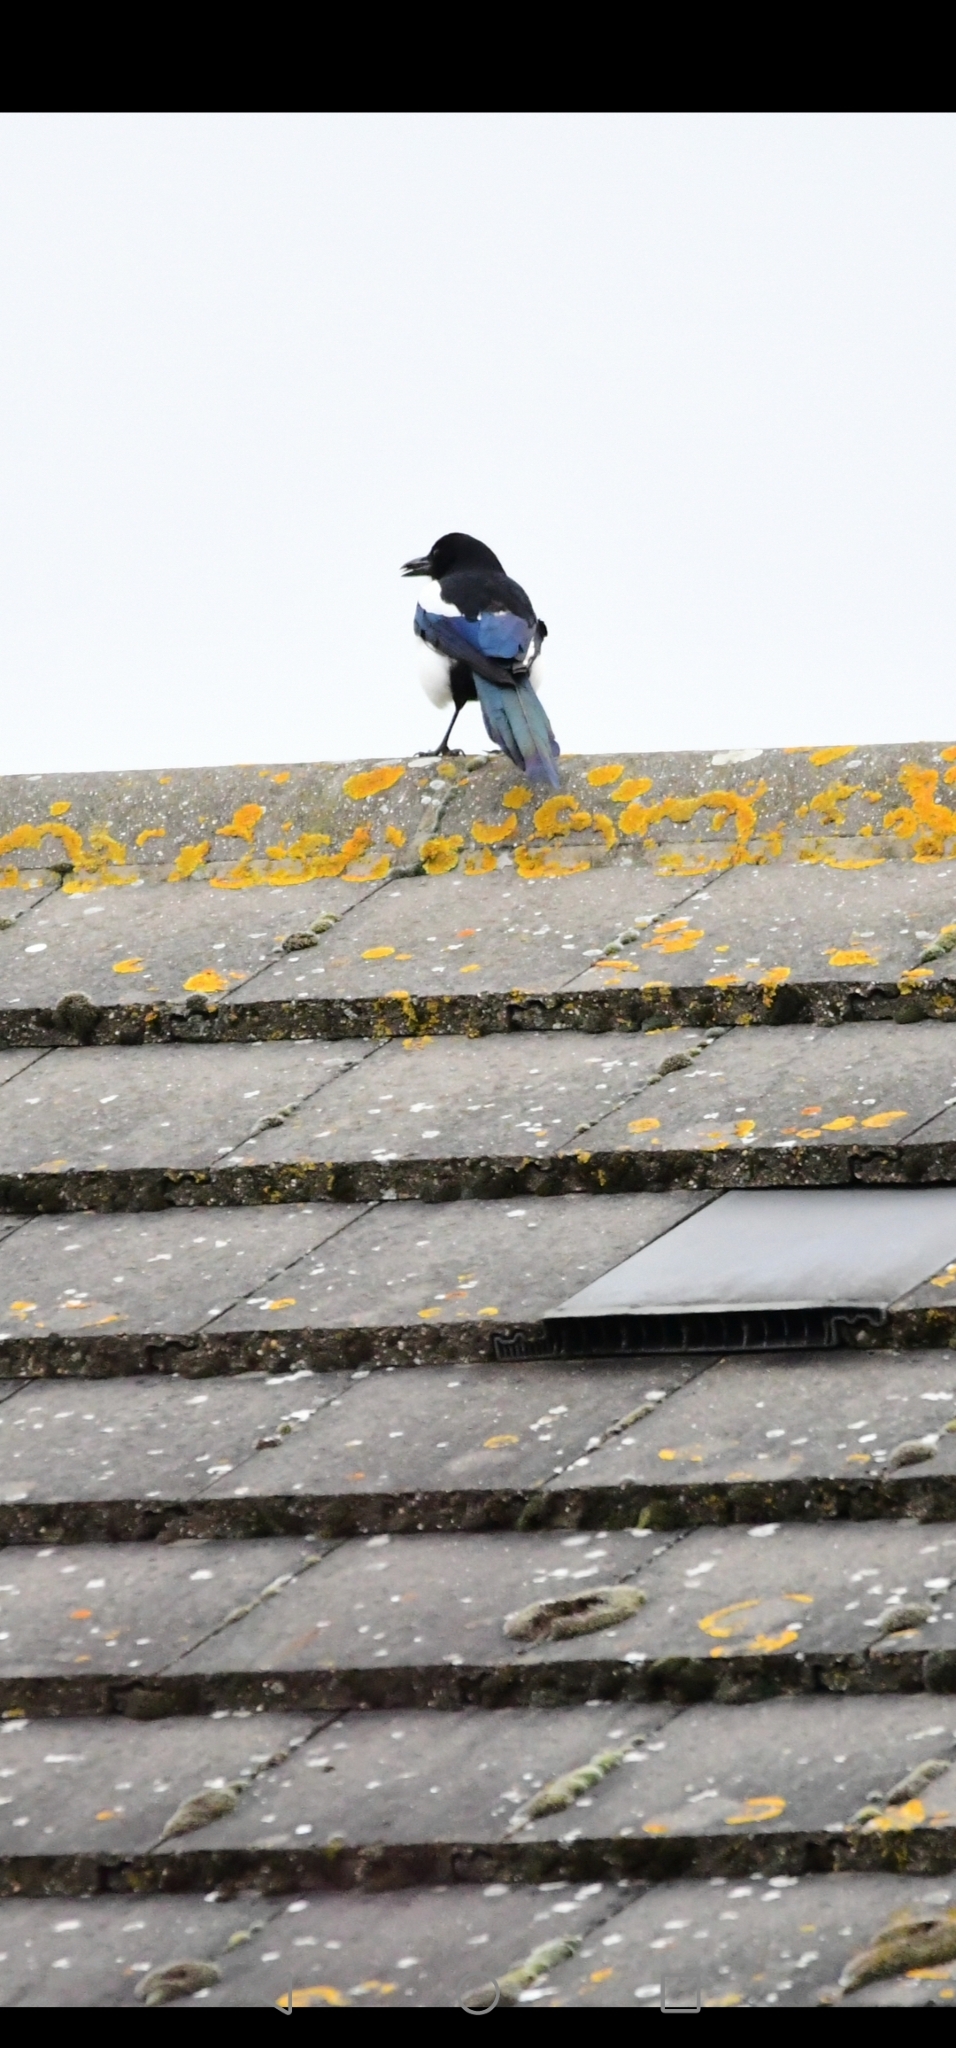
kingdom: Animalia
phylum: Chordata
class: Aves
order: Passeriformes
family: Corvidae
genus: Pica
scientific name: Pica pica
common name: Eurasian magpie
